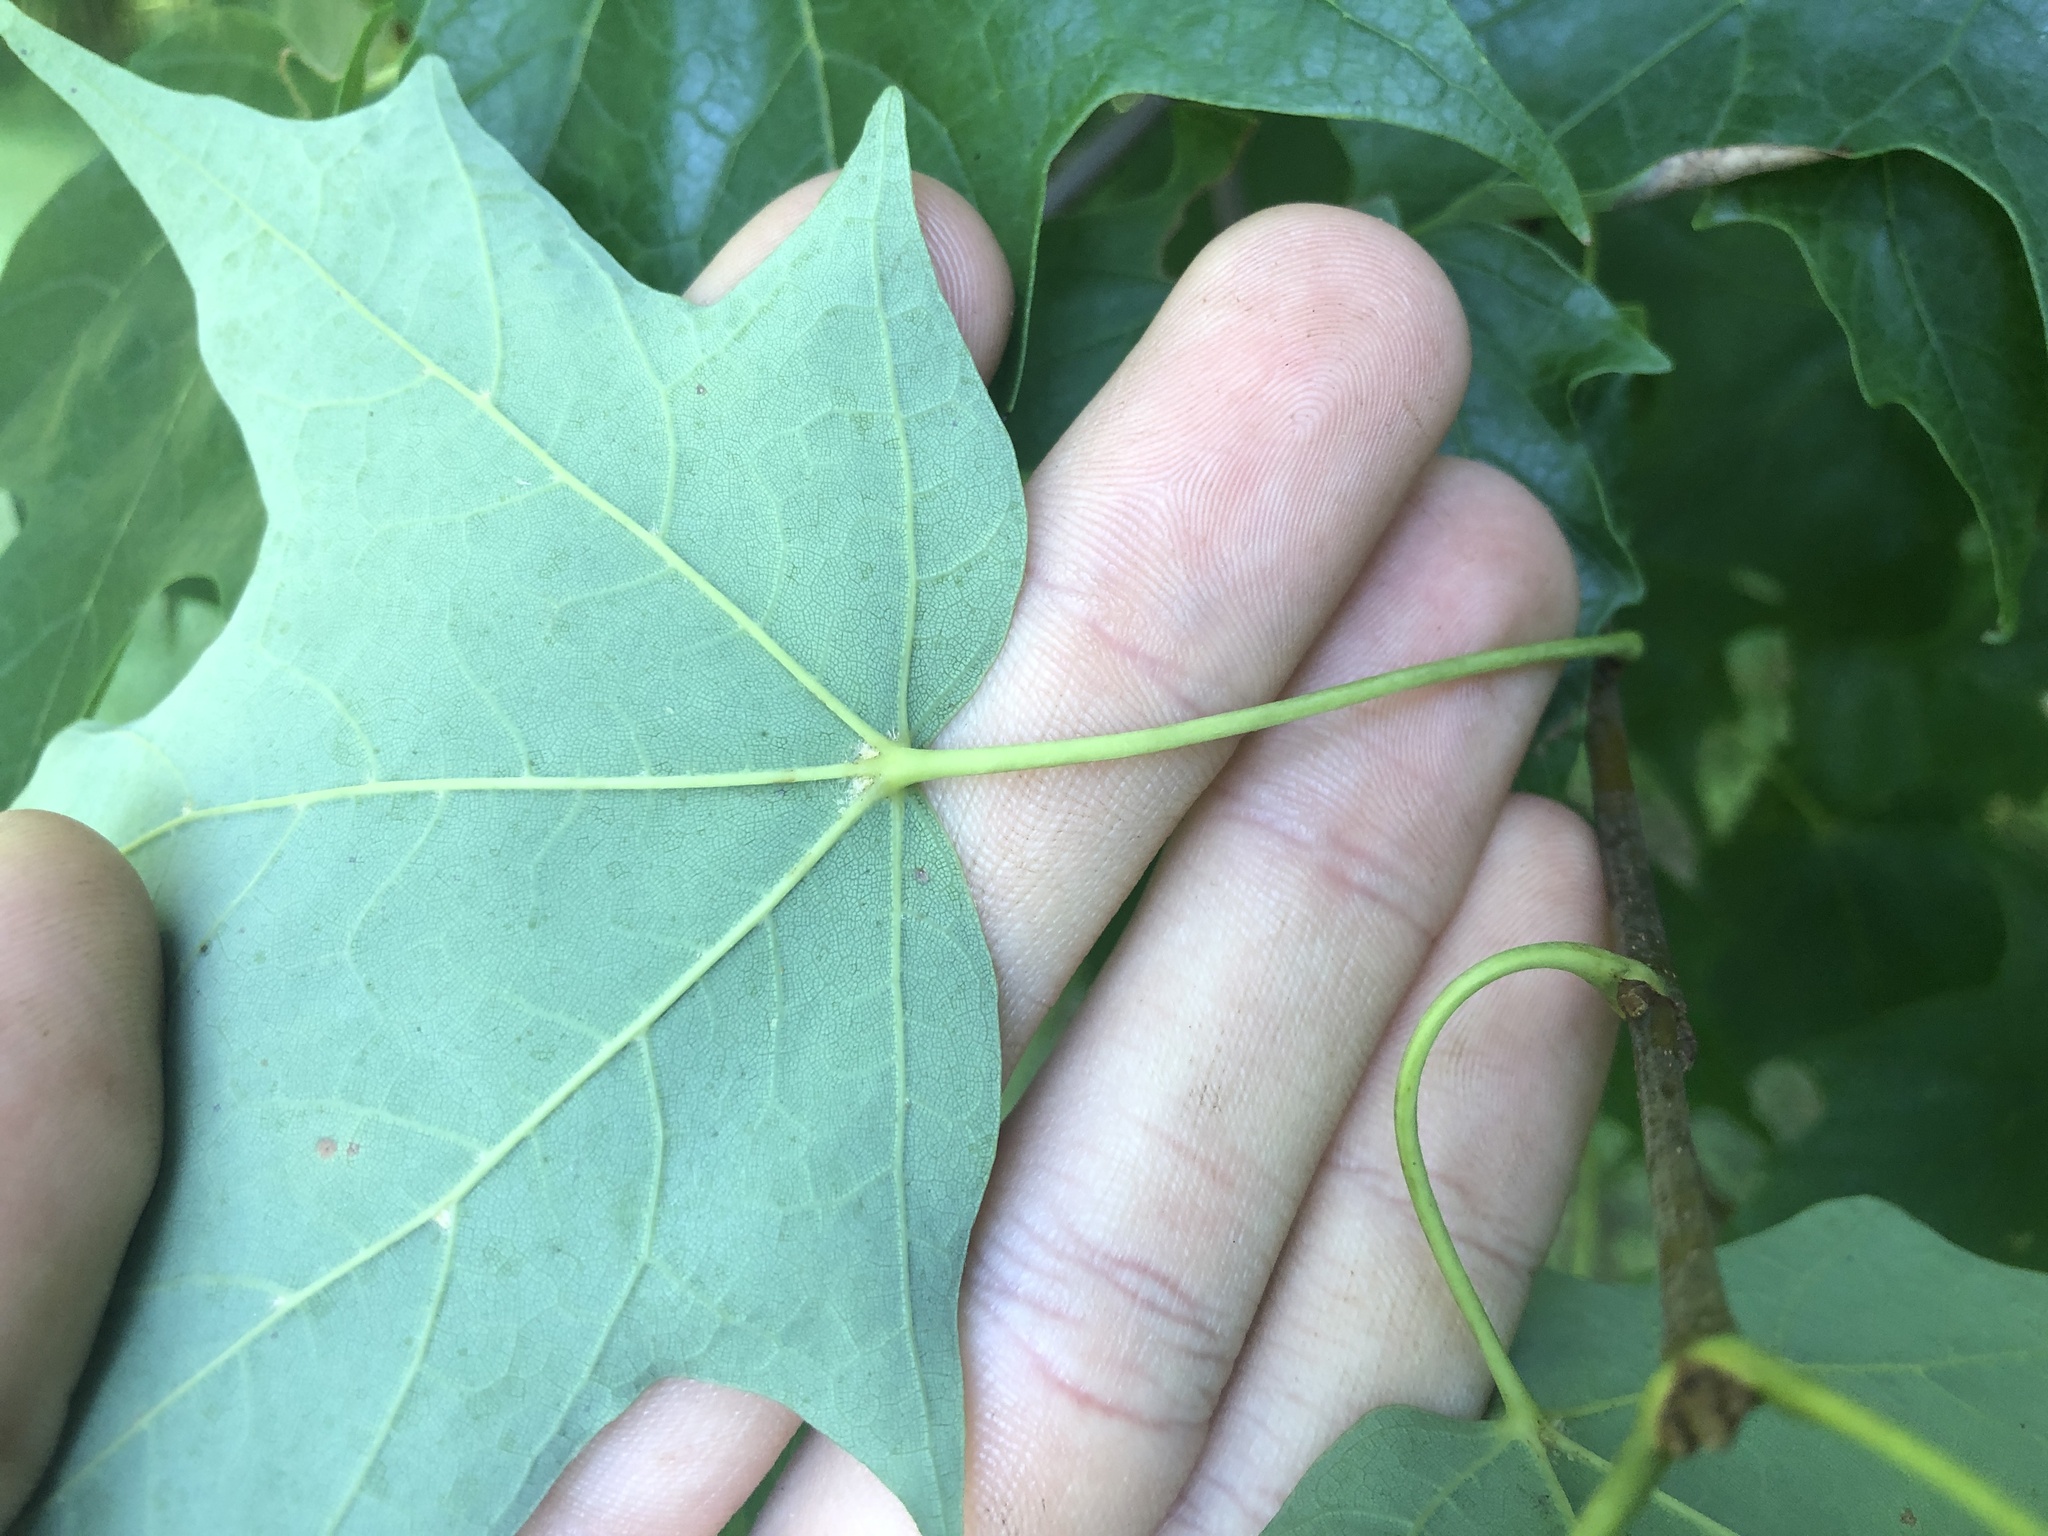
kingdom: Plantae
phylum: Tracheophyta
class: Magnoliopsida
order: Sapindales
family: Sapindaceae
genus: Acer
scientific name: Acer saccharum
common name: Sugar maple
